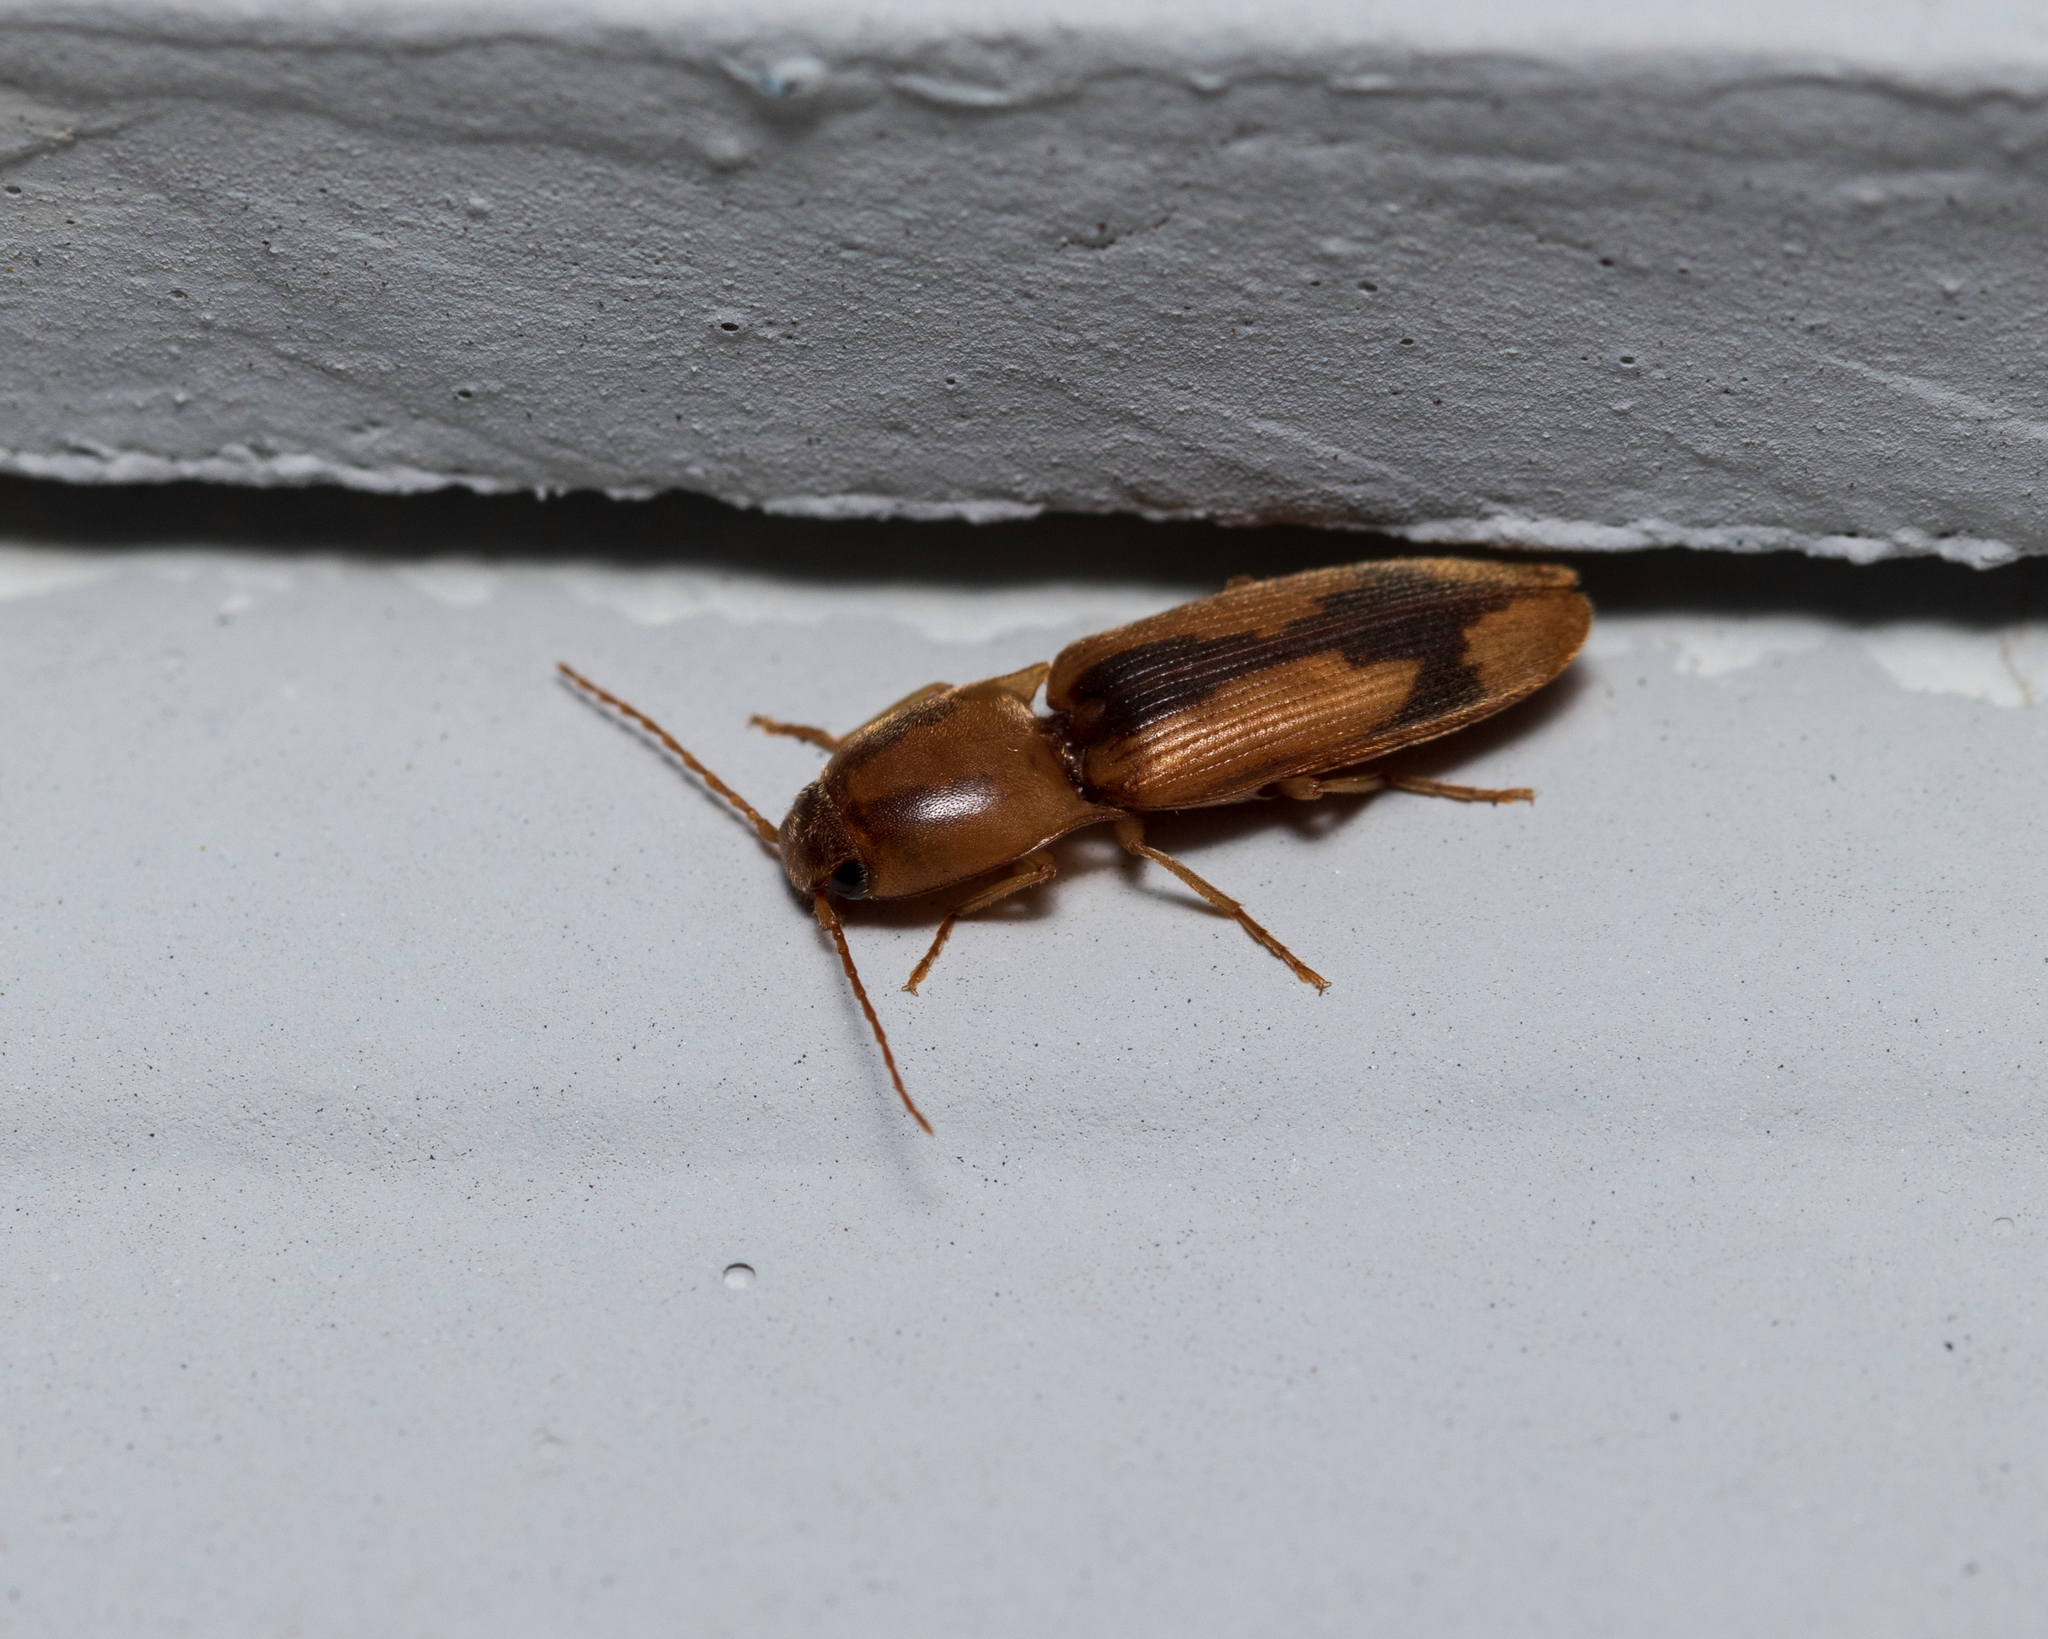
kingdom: Animalia
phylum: Arthropoda
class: Insecta
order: Coleoptera
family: Elateridae
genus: Monocrepidius
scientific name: Monocrepidius
